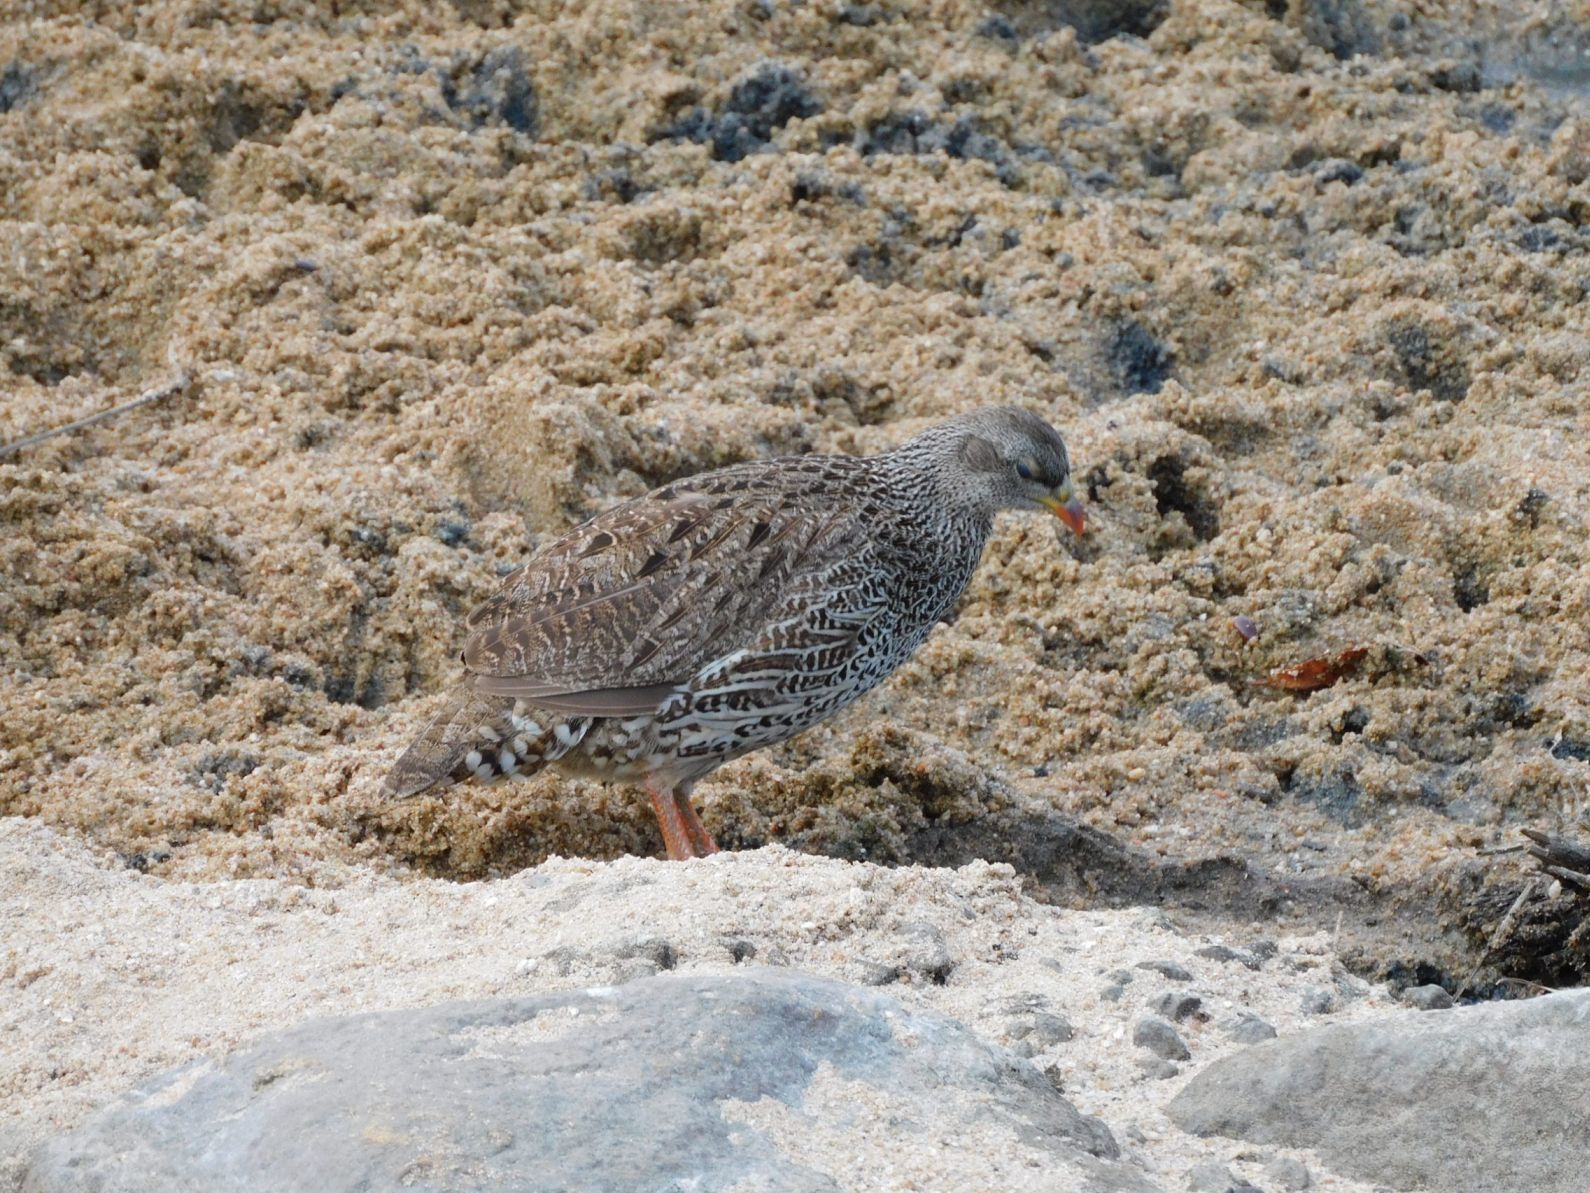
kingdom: Animalia
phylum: Chordata
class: Aves
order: Galliformes
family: Phasianidae
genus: Pternistis
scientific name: Pternistis natalensis
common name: Natal spurfowl
